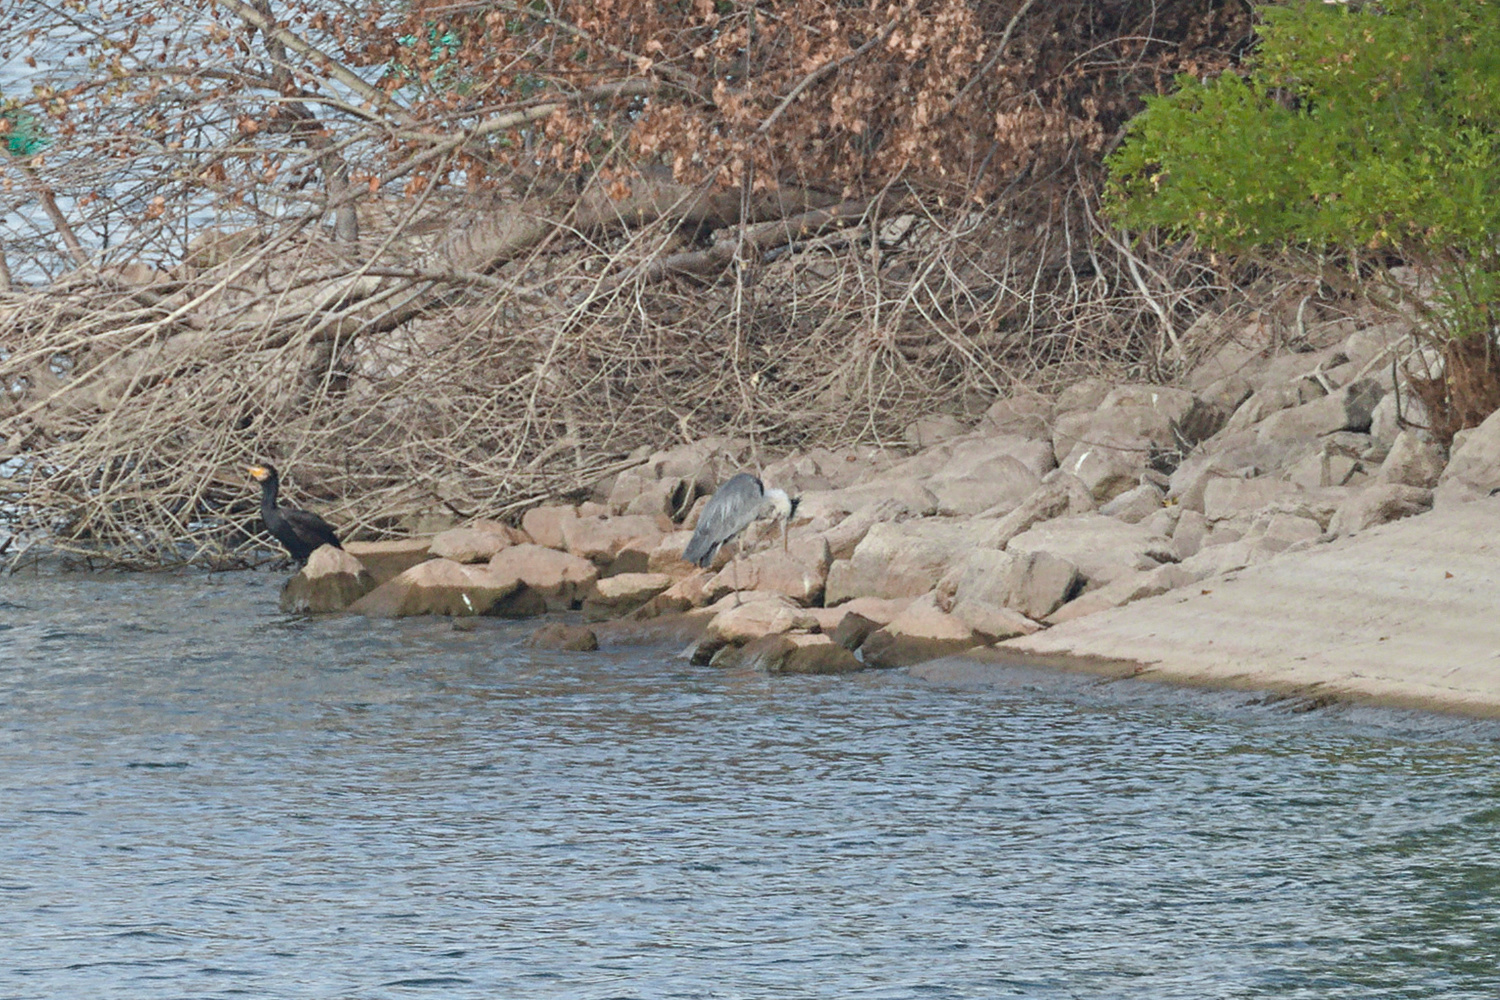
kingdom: Animalia
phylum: Chordata
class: Aves
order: Pelecaniformes
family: Ardeidae
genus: Ardea
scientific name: Ardea cinerea
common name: Grey heron
